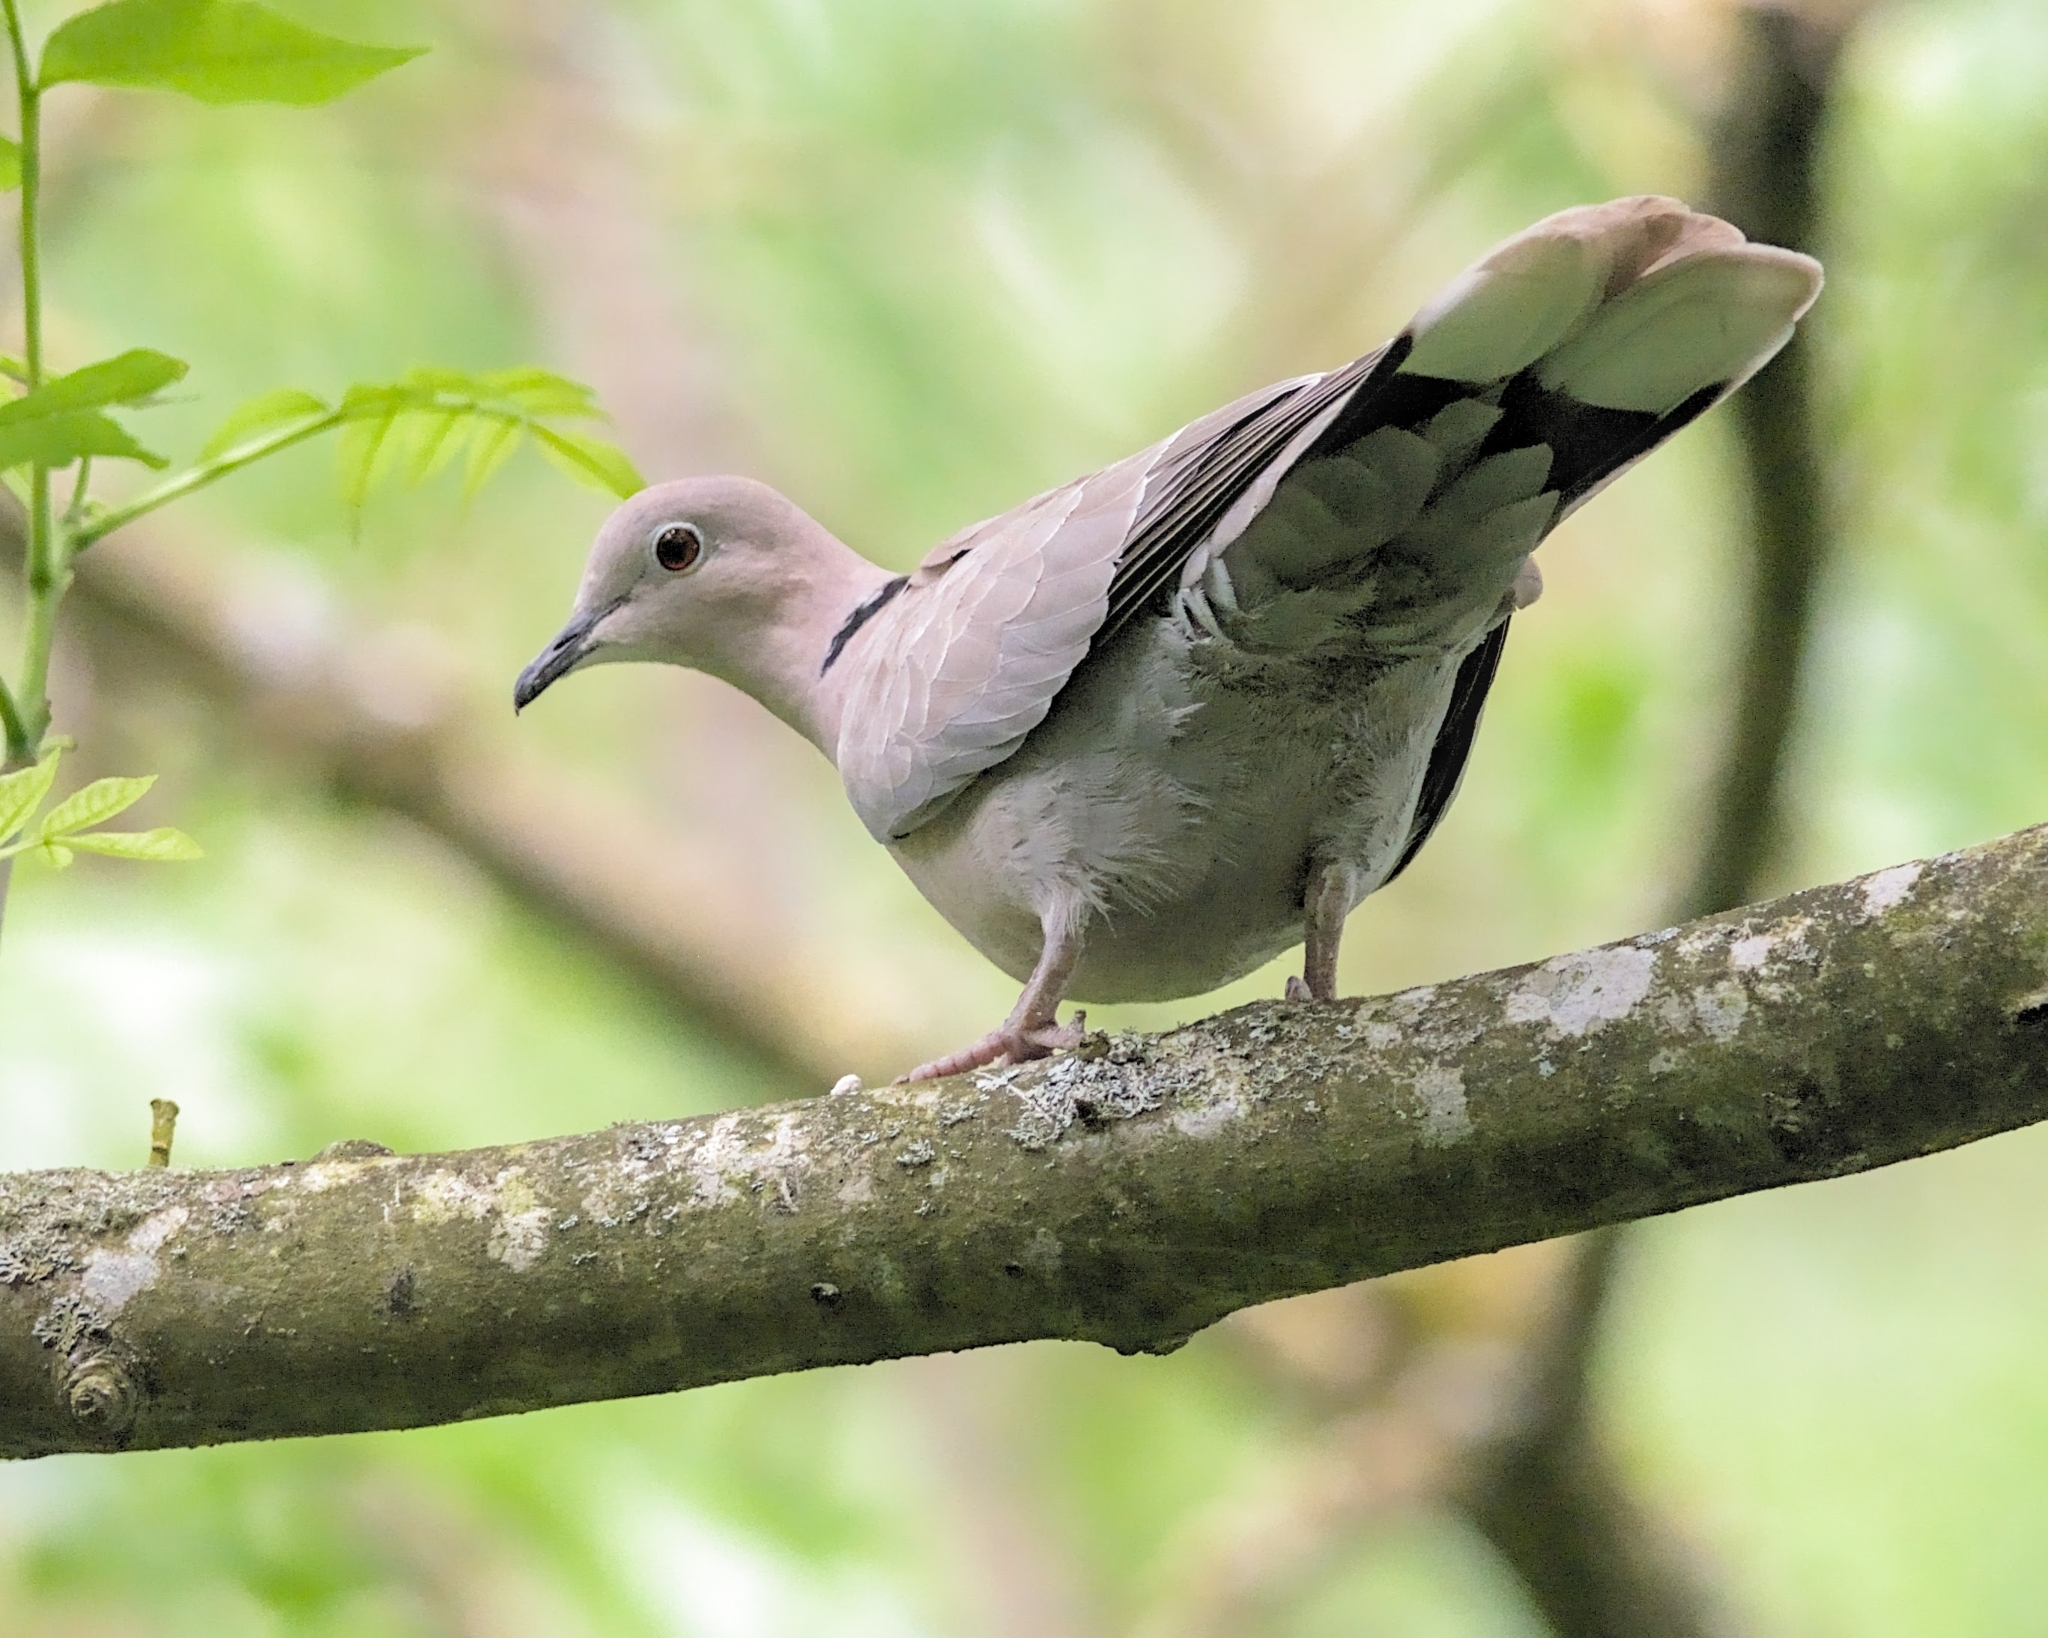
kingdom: Animalia
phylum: Chordata
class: Aves
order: Columbiformes
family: Columbidae
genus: Streptopelia
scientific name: Streptopelia decaocto
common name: Eurasian collared dove
